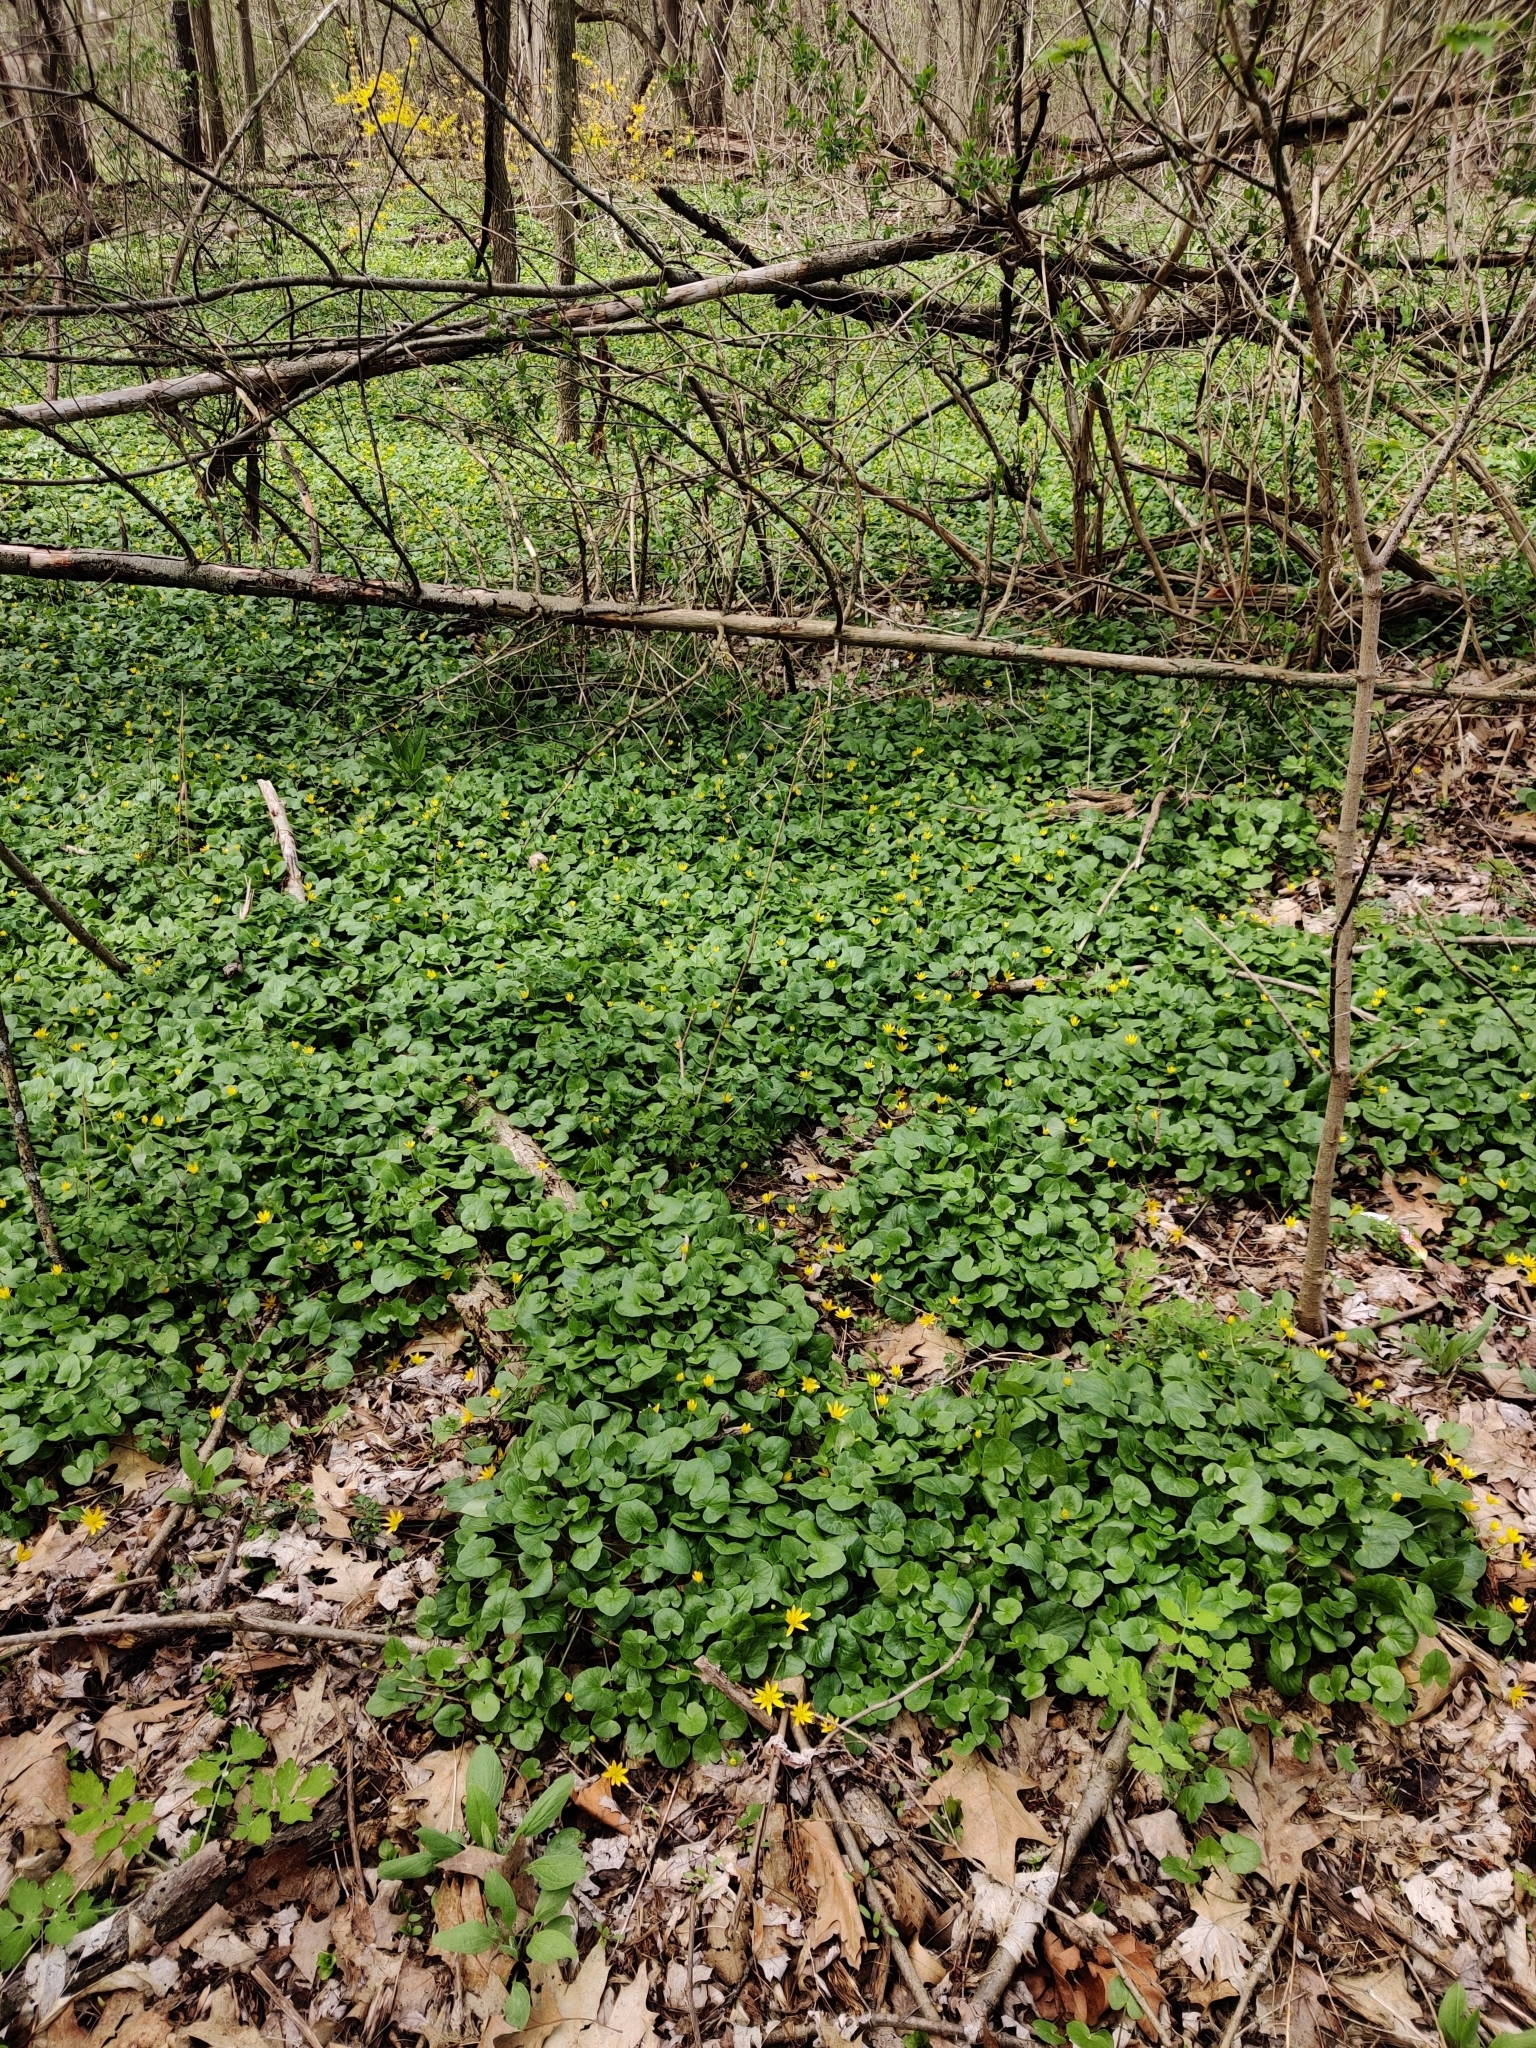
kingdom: Plantae
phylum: Tracheophyta
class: Magnoliopsida
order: Ranunculales
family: Ranunculaceae
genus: Ficaria
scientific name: Ficaria verna
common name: Lesser celandine
